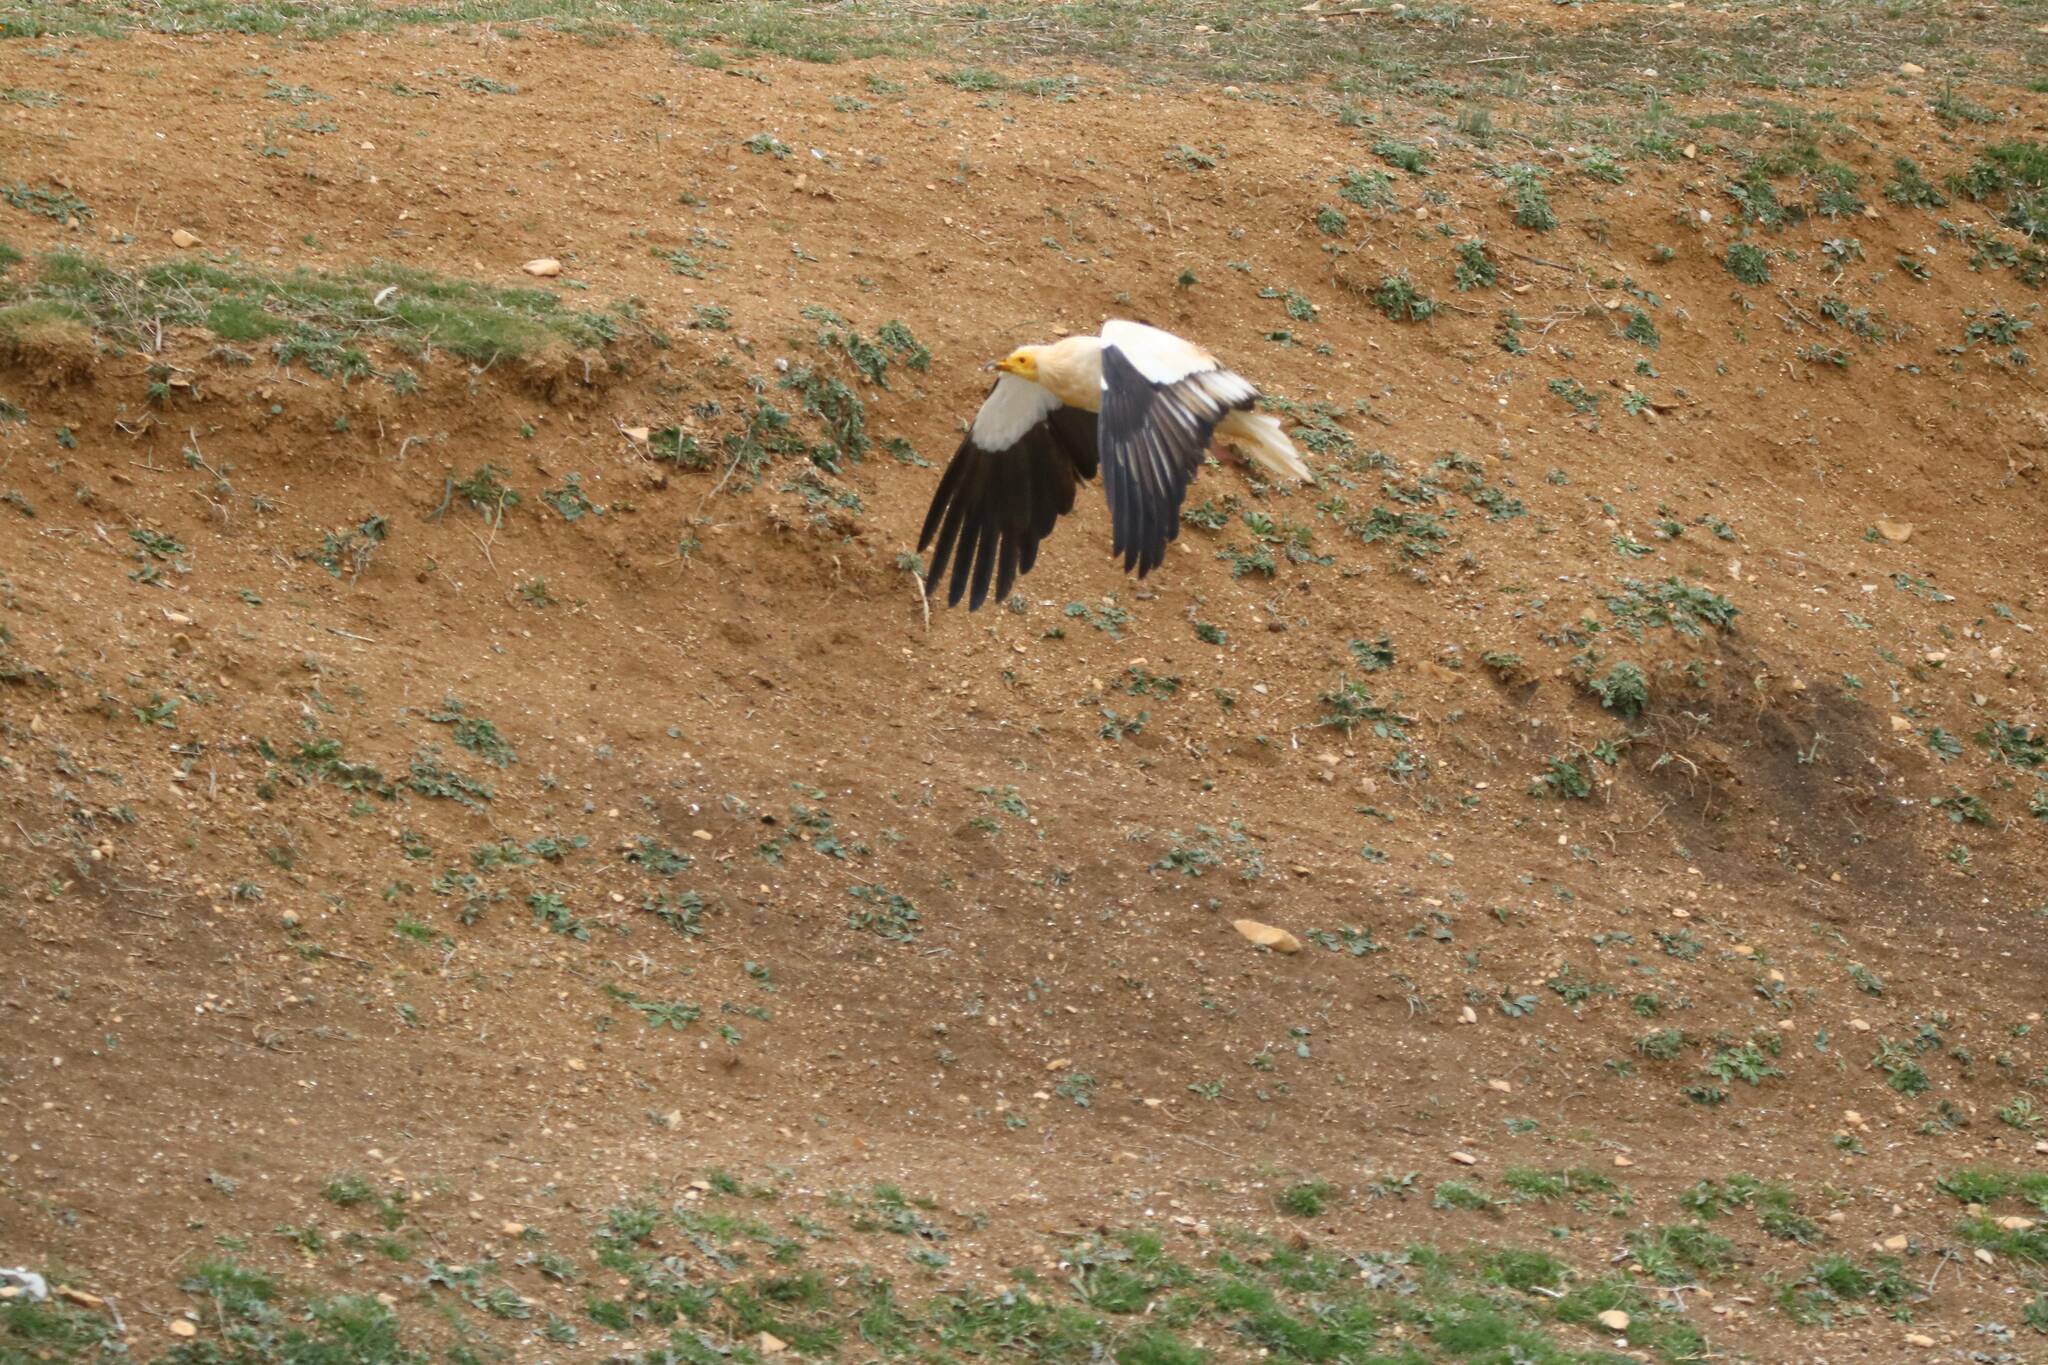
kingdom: Animalia
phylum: Chordata
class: Aves
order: Accipitriformes
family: Accipitridae
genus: Neophron
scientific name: Neophron percnopterus
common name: Egyptian vulture
